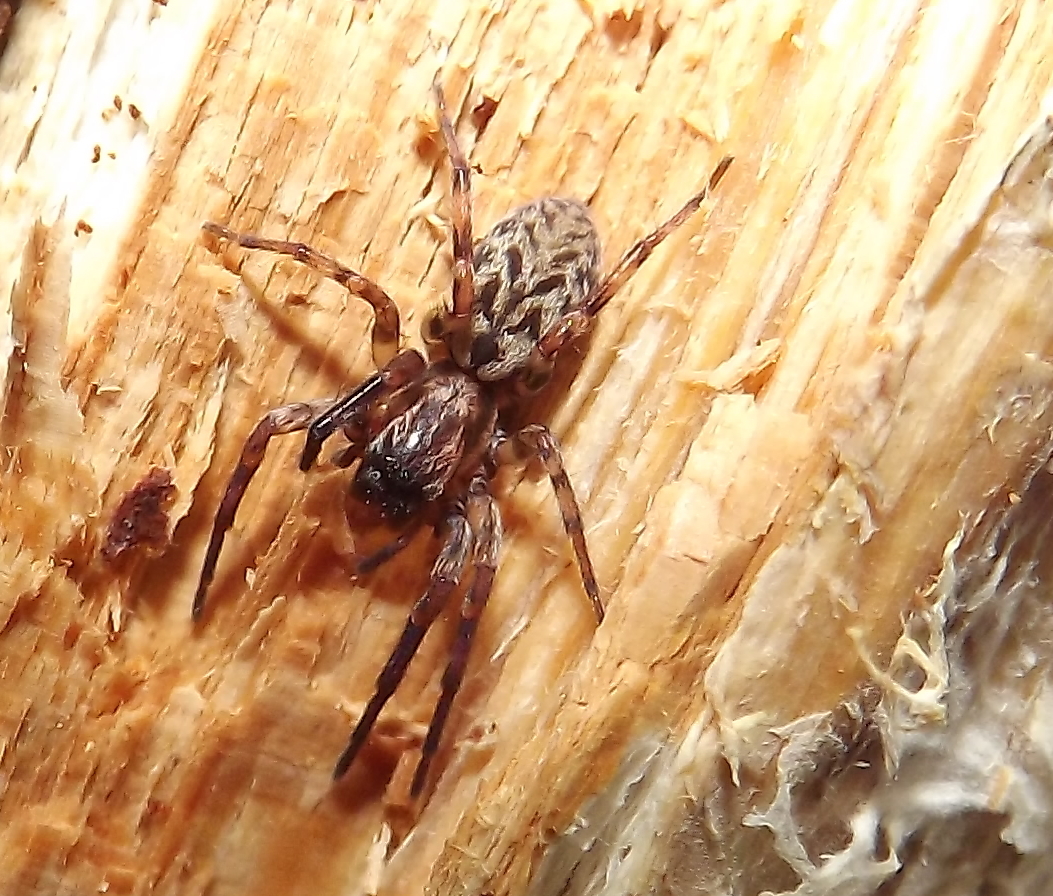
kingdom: Animalia
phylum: Arthropoda
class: Arachnida
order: Araneae
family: Anyphaenidae
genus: Axyracrus
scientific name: Axyracrus elegans
